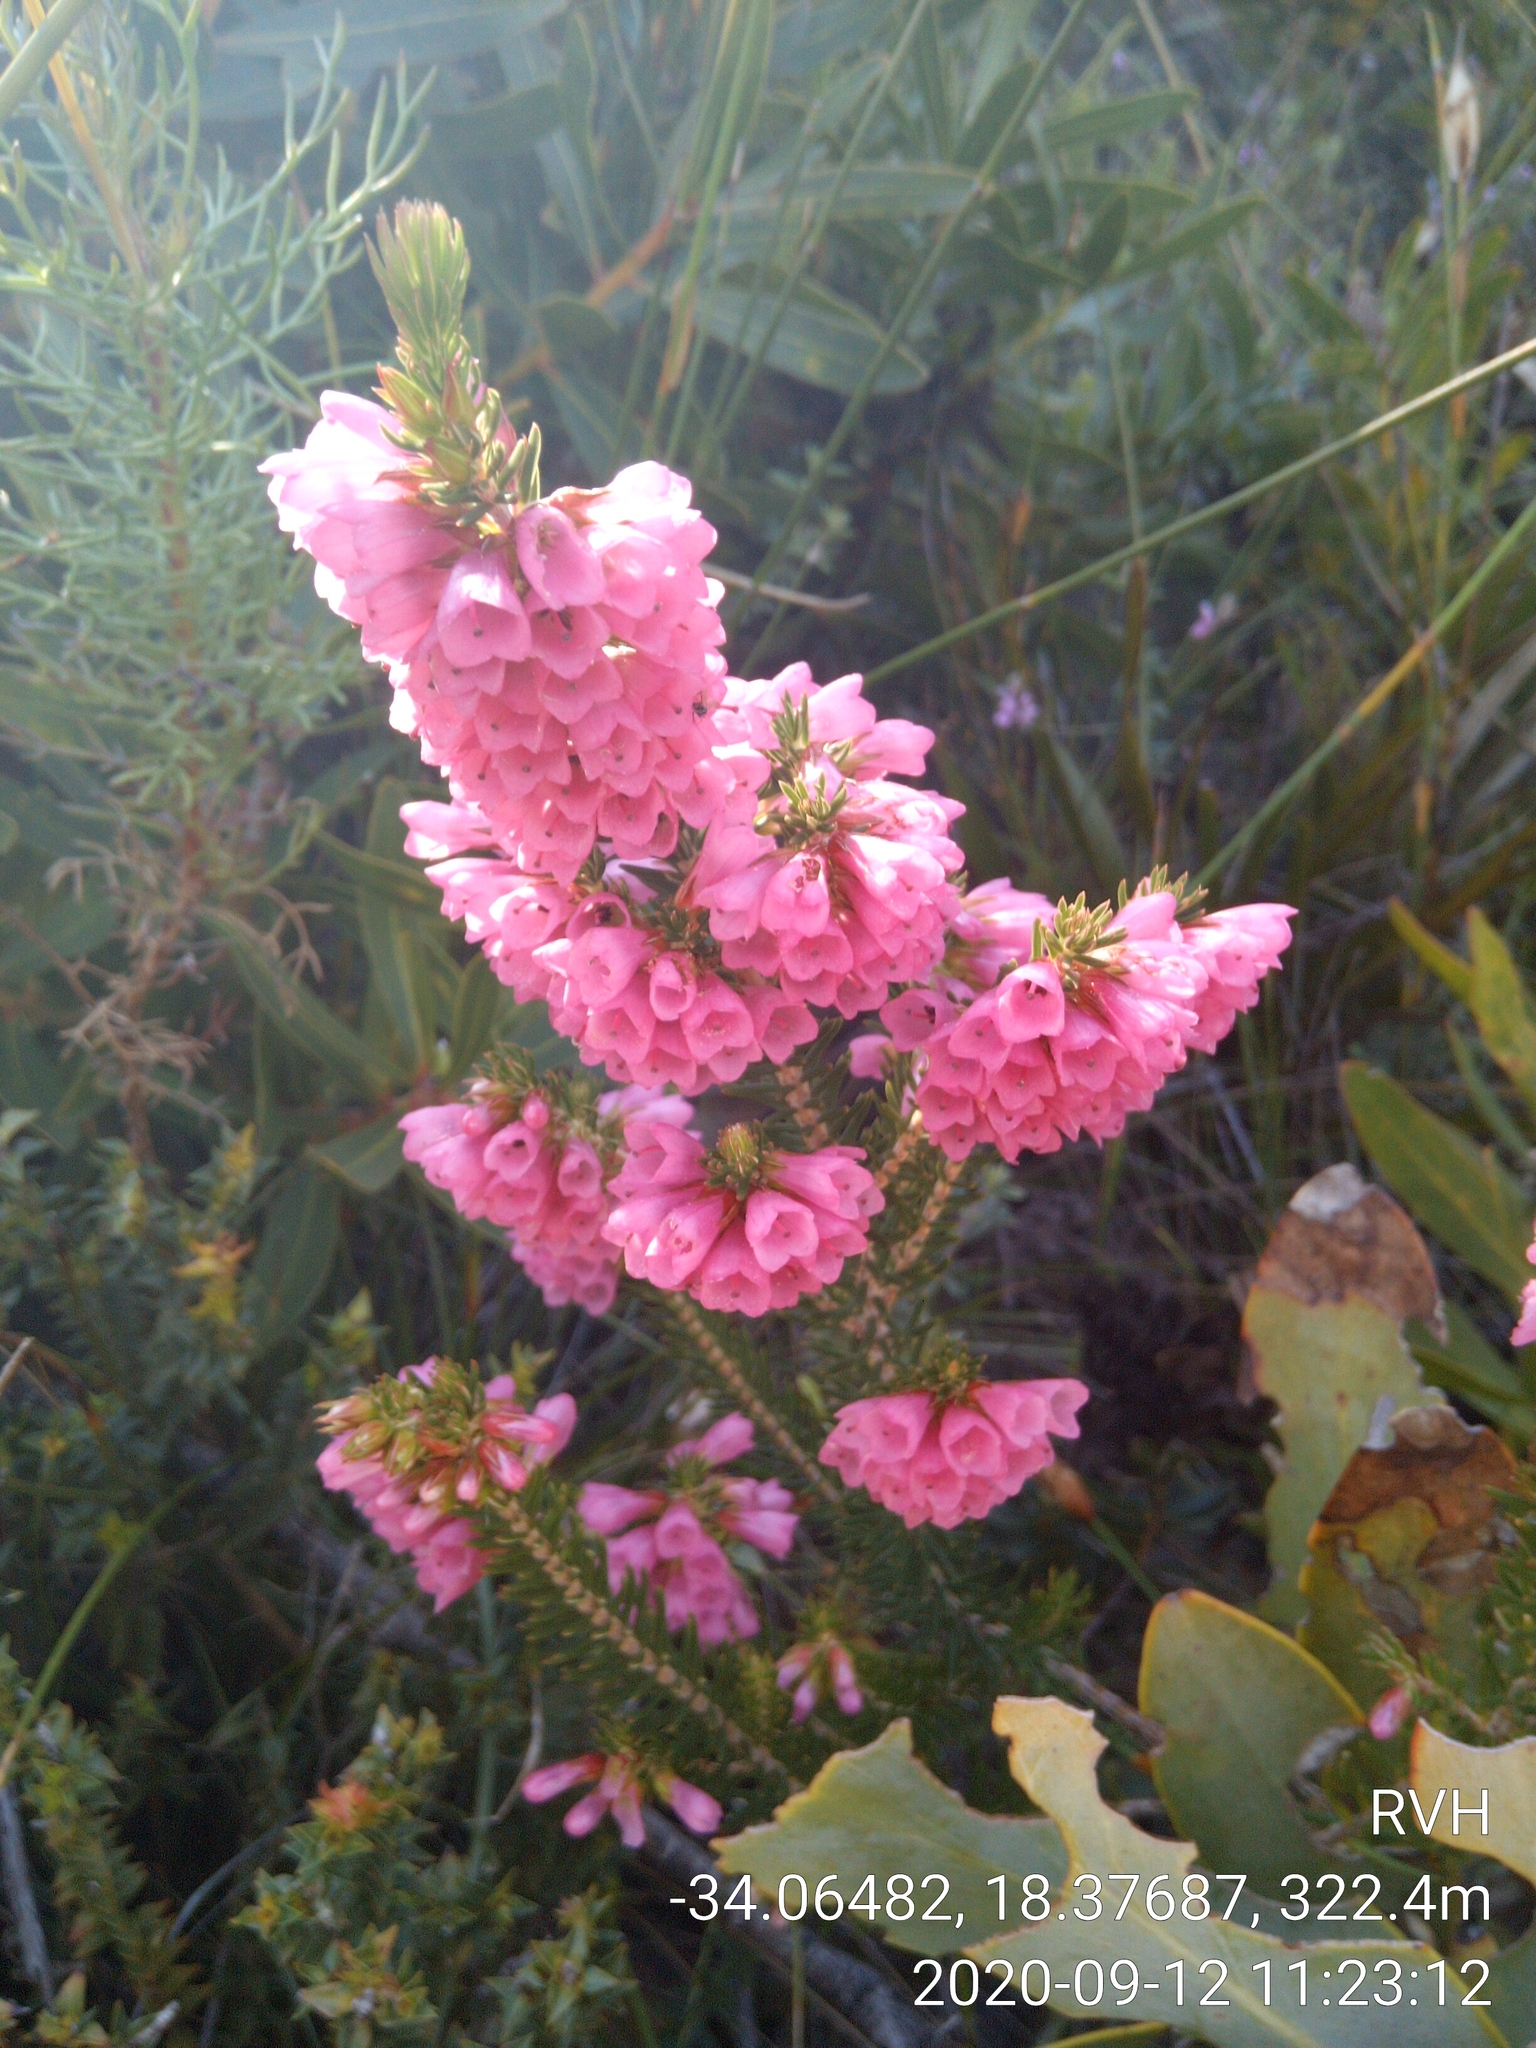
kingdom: Plantae
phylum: Tracheophyta
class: Magnoliopsida
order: Ericales
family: Ericaceae
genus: Erica
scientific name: Erica abietina
